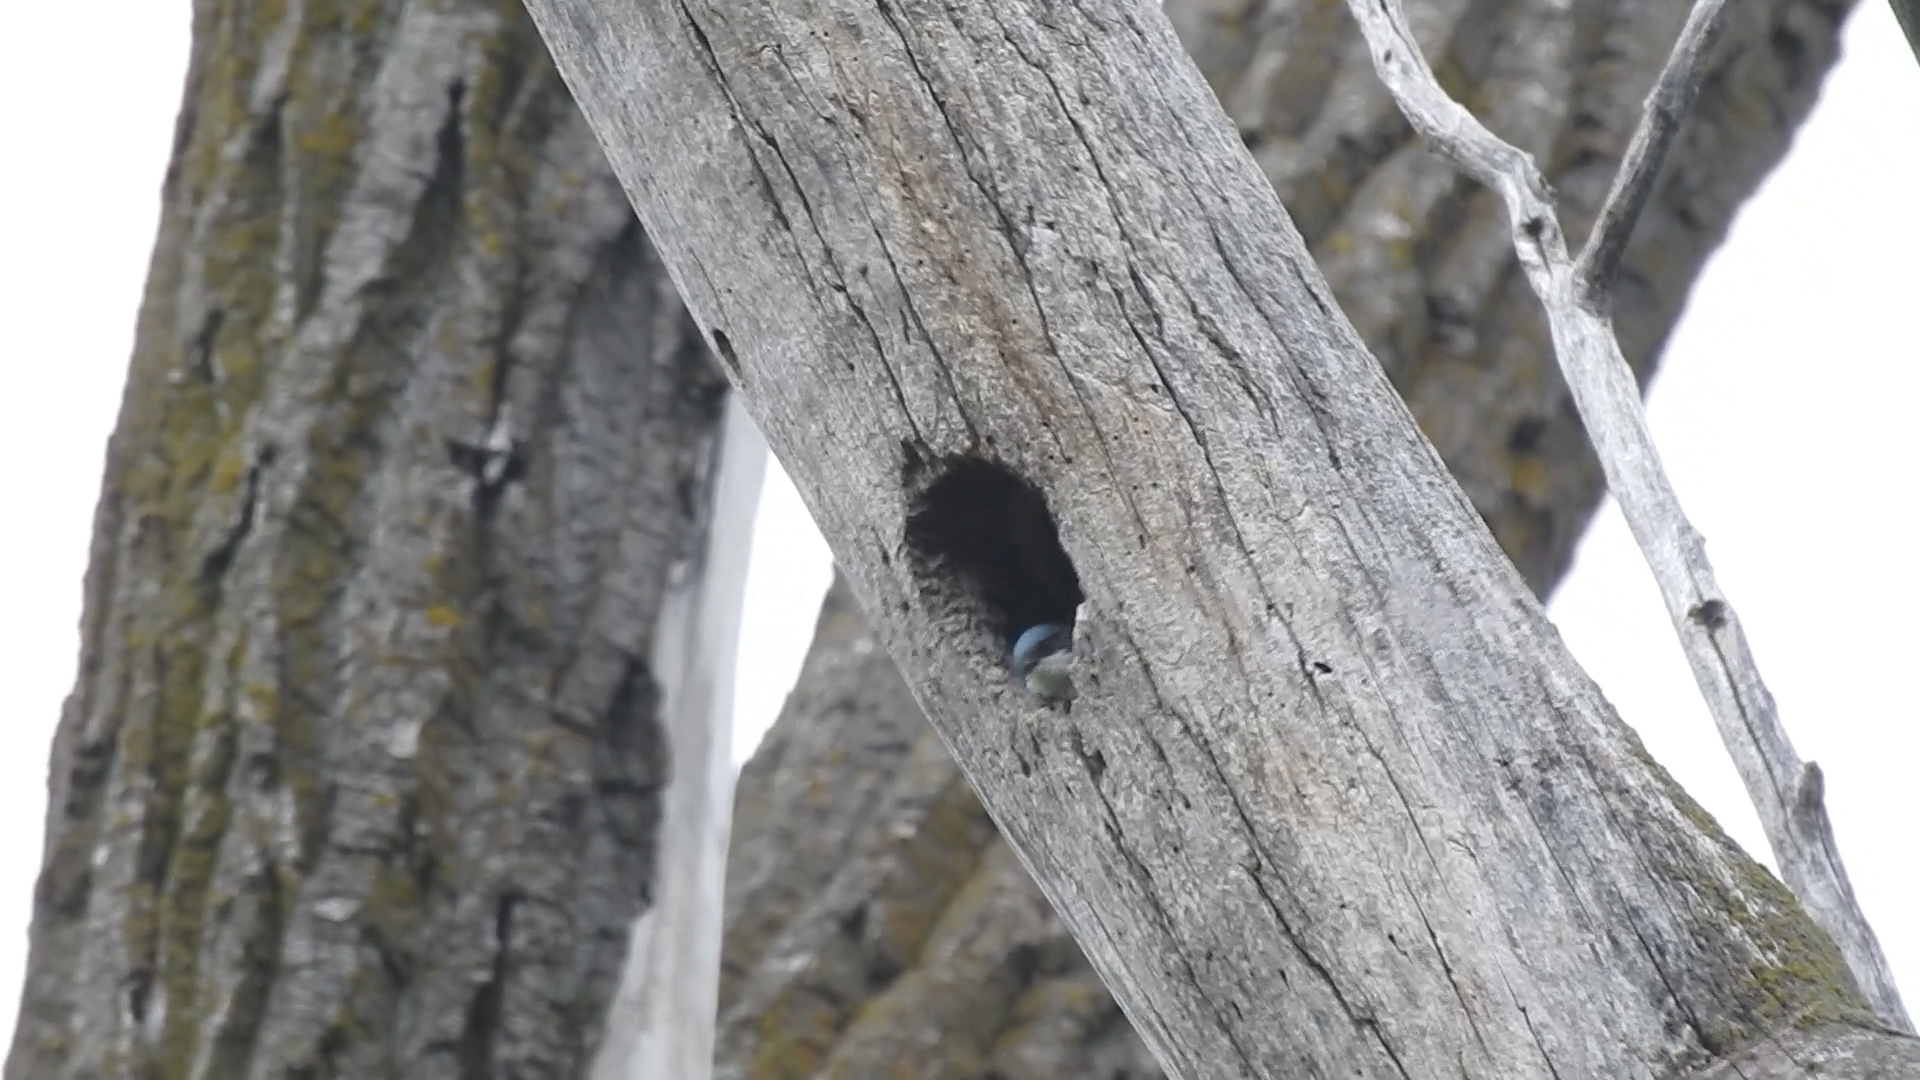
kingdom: Animalia
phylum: Chordata
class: Aves
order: Passeriformes
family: Hirundinidae
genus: Tachycineta
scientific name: Tachycineta bicolor
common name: Tree swallow
